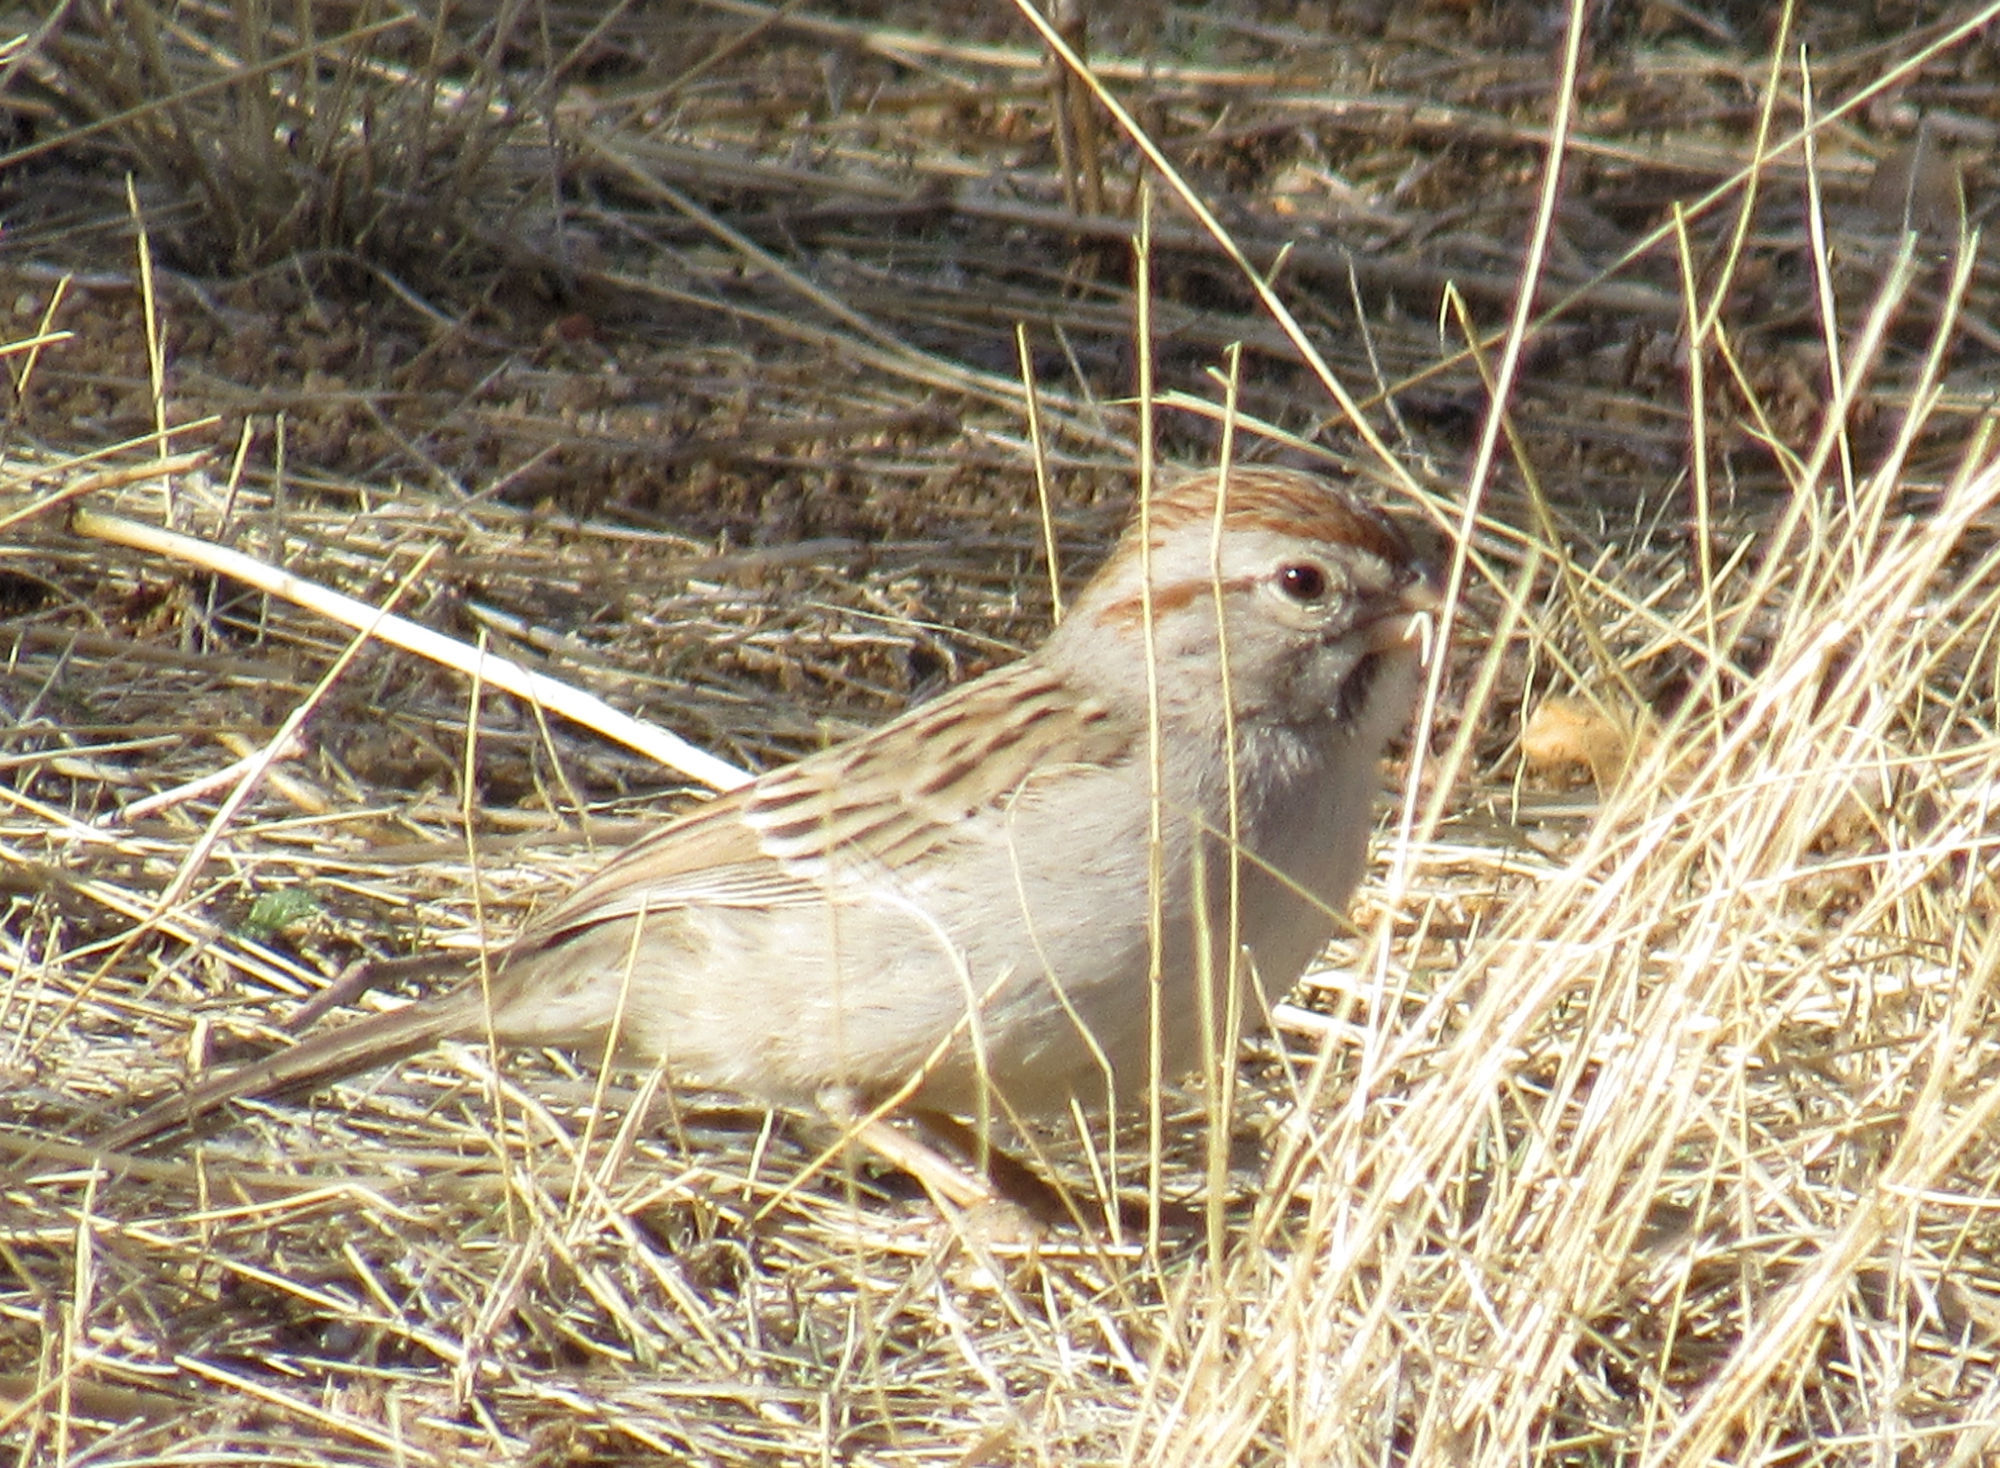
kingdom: Animalia
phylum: Chordata
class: Aves
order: Passeriformes
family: Passerellidae
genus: Peucaea
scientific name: Peucaea carpalis
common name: Rufous-winged sparrow
